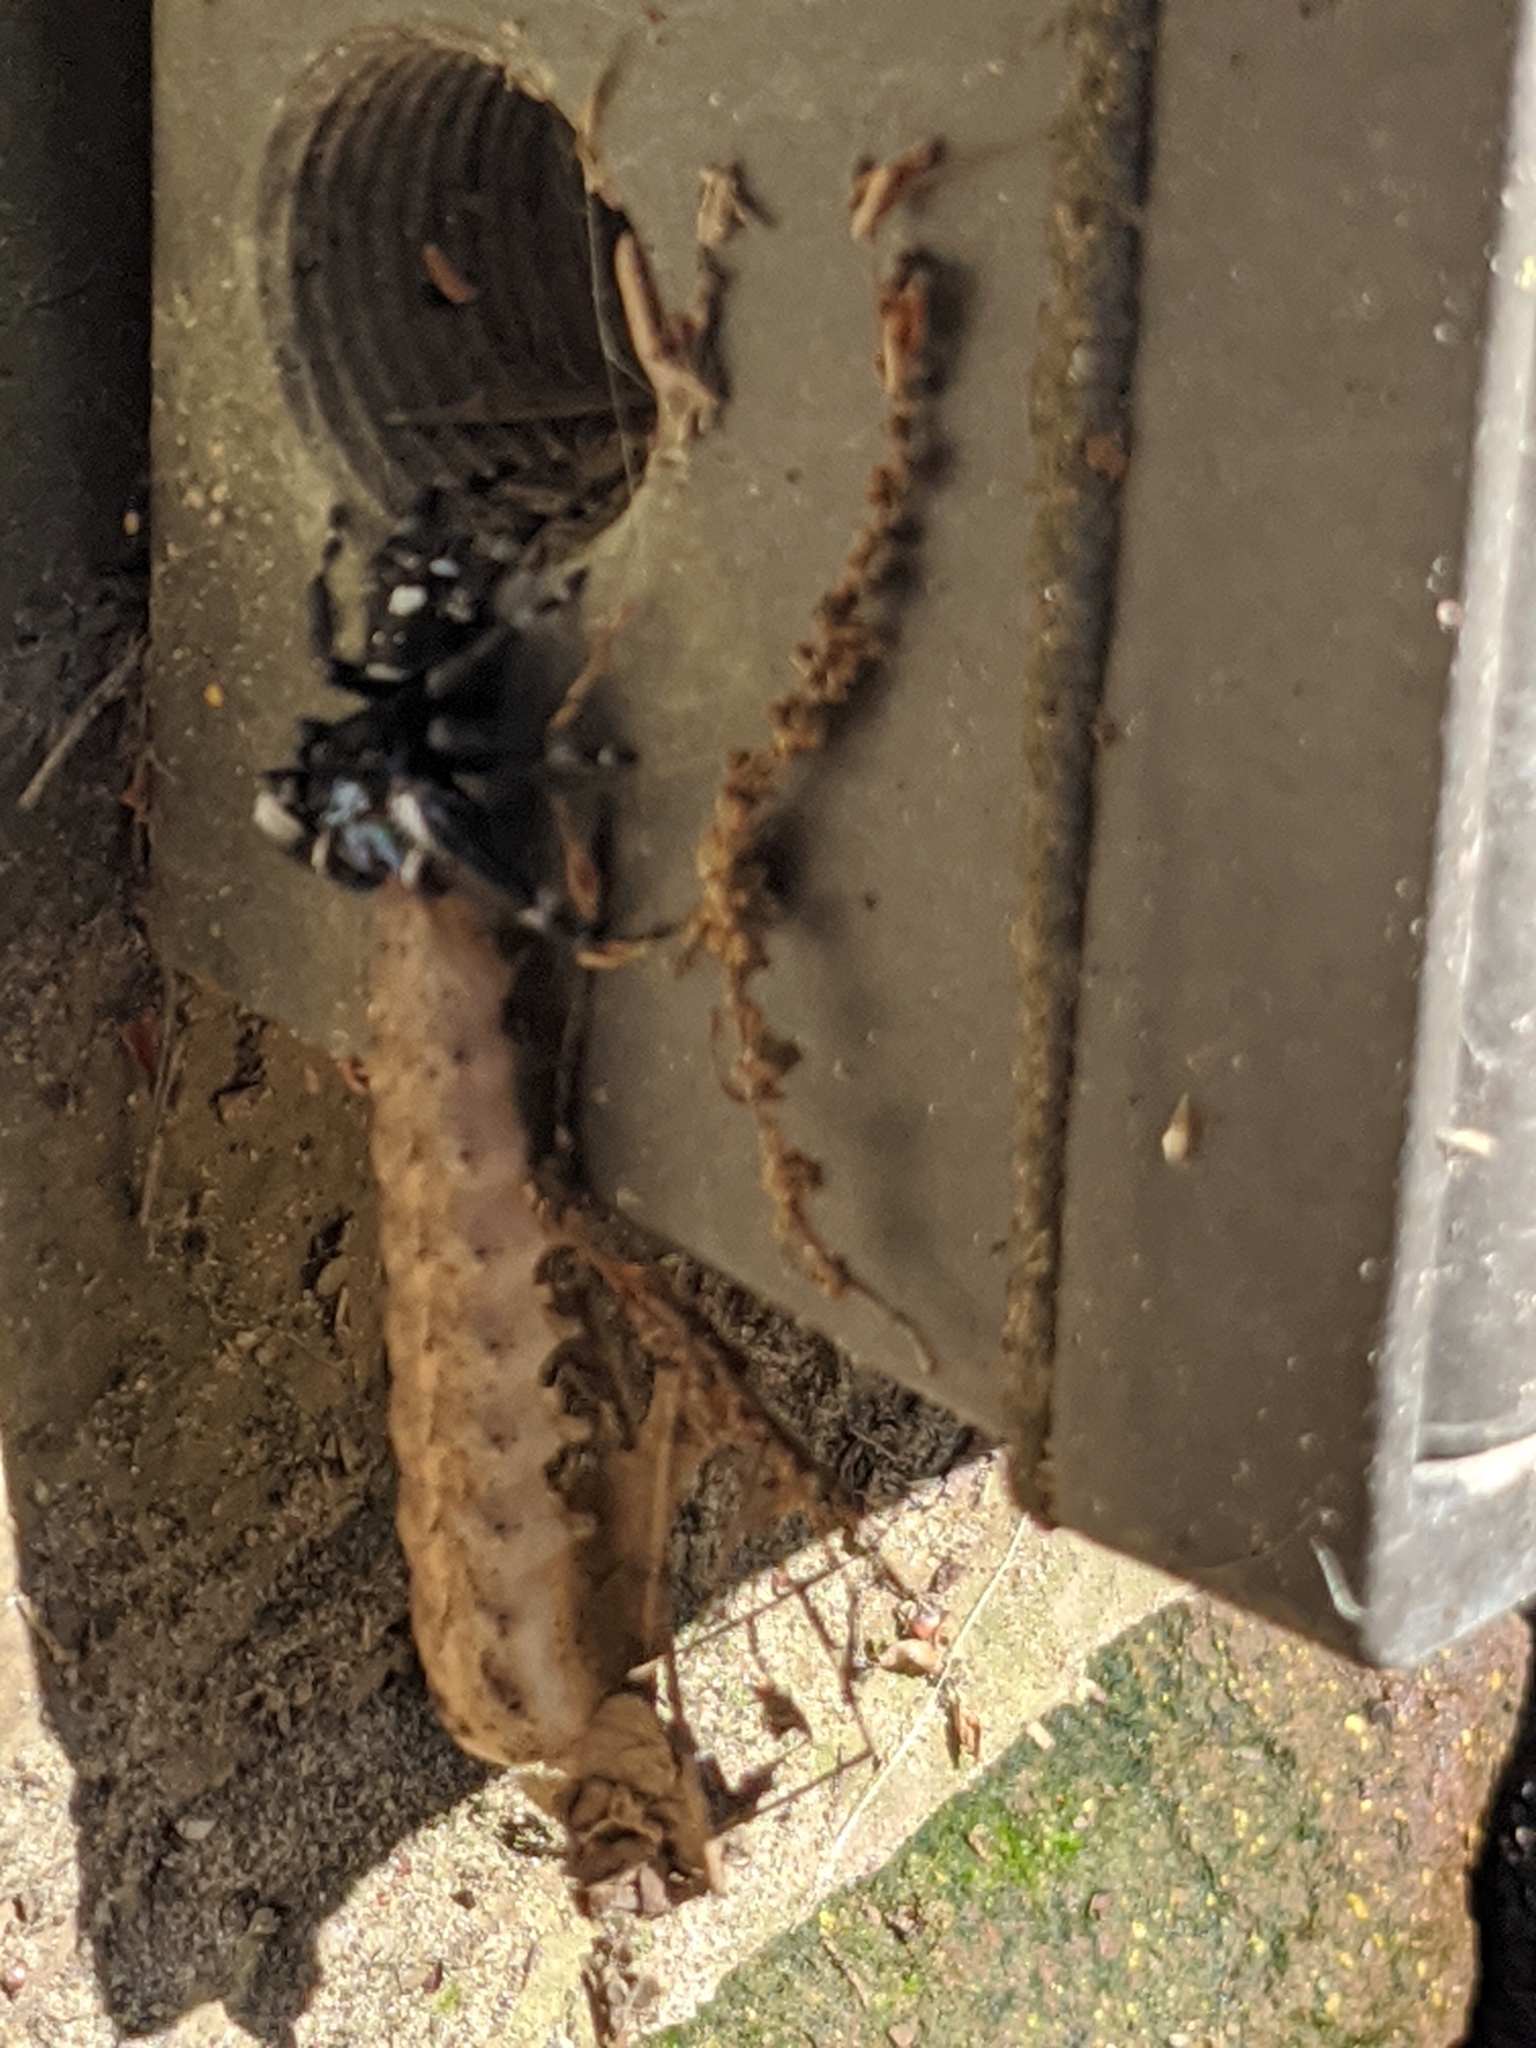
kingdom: Animalia
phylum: Arthropoda
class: Arachnida
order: Araneae
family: Salticidae
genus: Phidippus
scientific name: Phidippus audax
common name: Bold jumper
